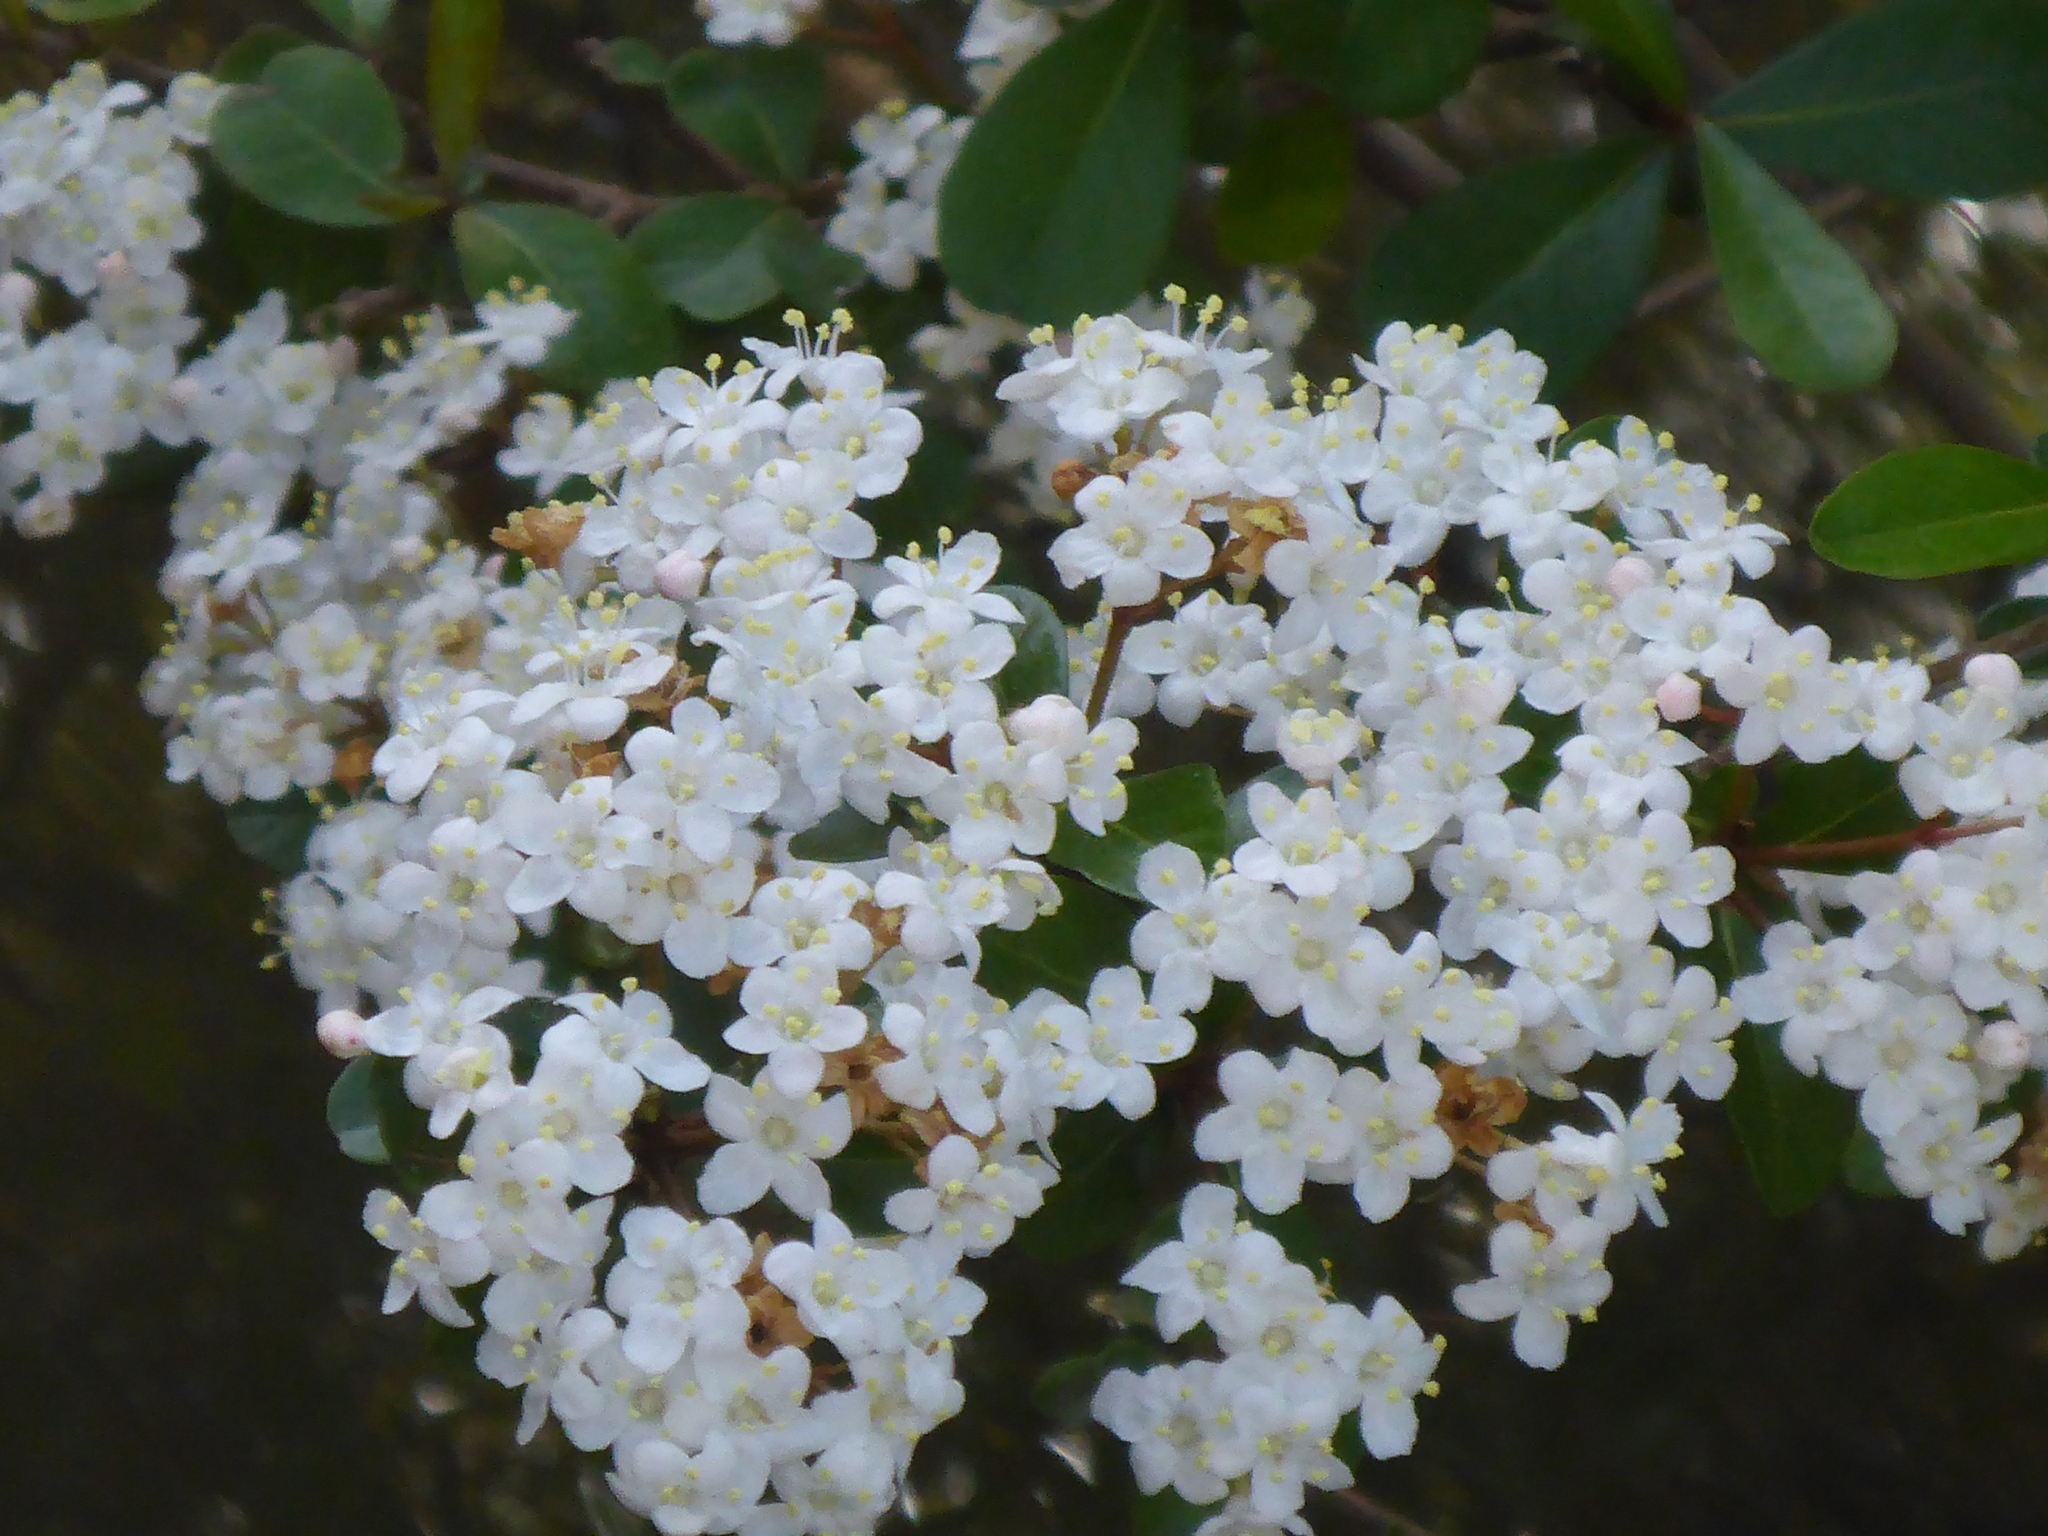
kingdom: Plantae
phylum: Tracheophyta
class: Magnoliopsida
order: Dipsacales
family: Viburnaceae
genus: Viburnum
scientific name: Viburnum obovatum
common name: Walter's viburnum
